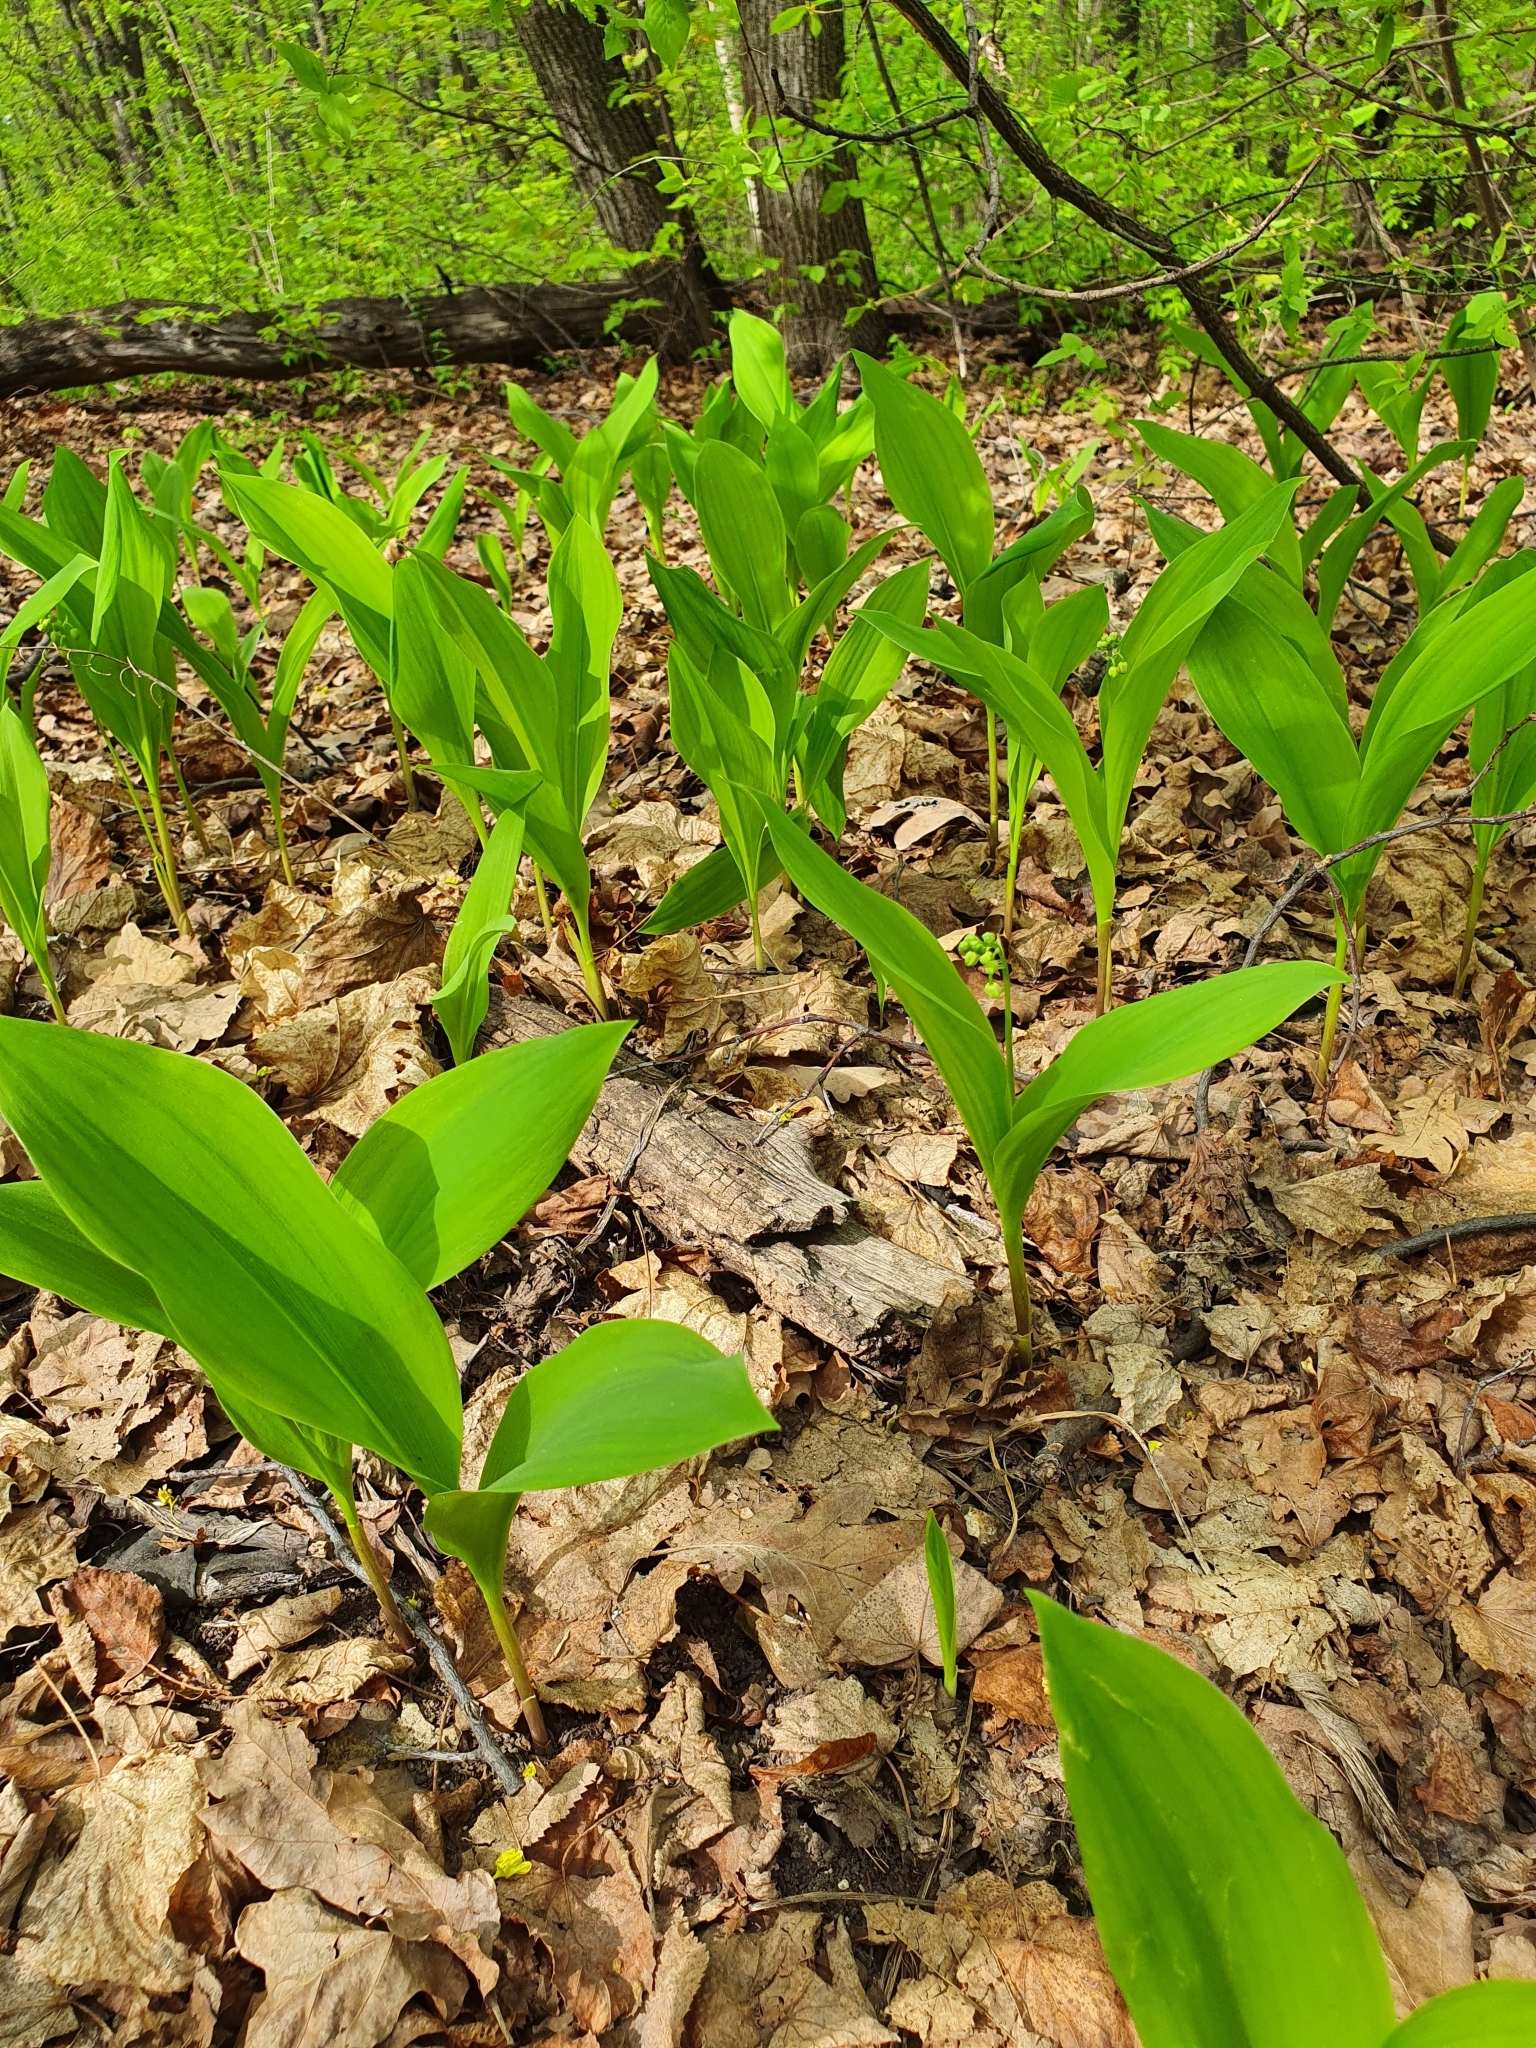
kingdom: Plantae
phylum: Tracheophyta
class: Liliopsida
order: Asparagales
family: Asparagaceae
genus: Convallaria
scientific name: Convallaria majalis
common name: Lily-of-the-valley
